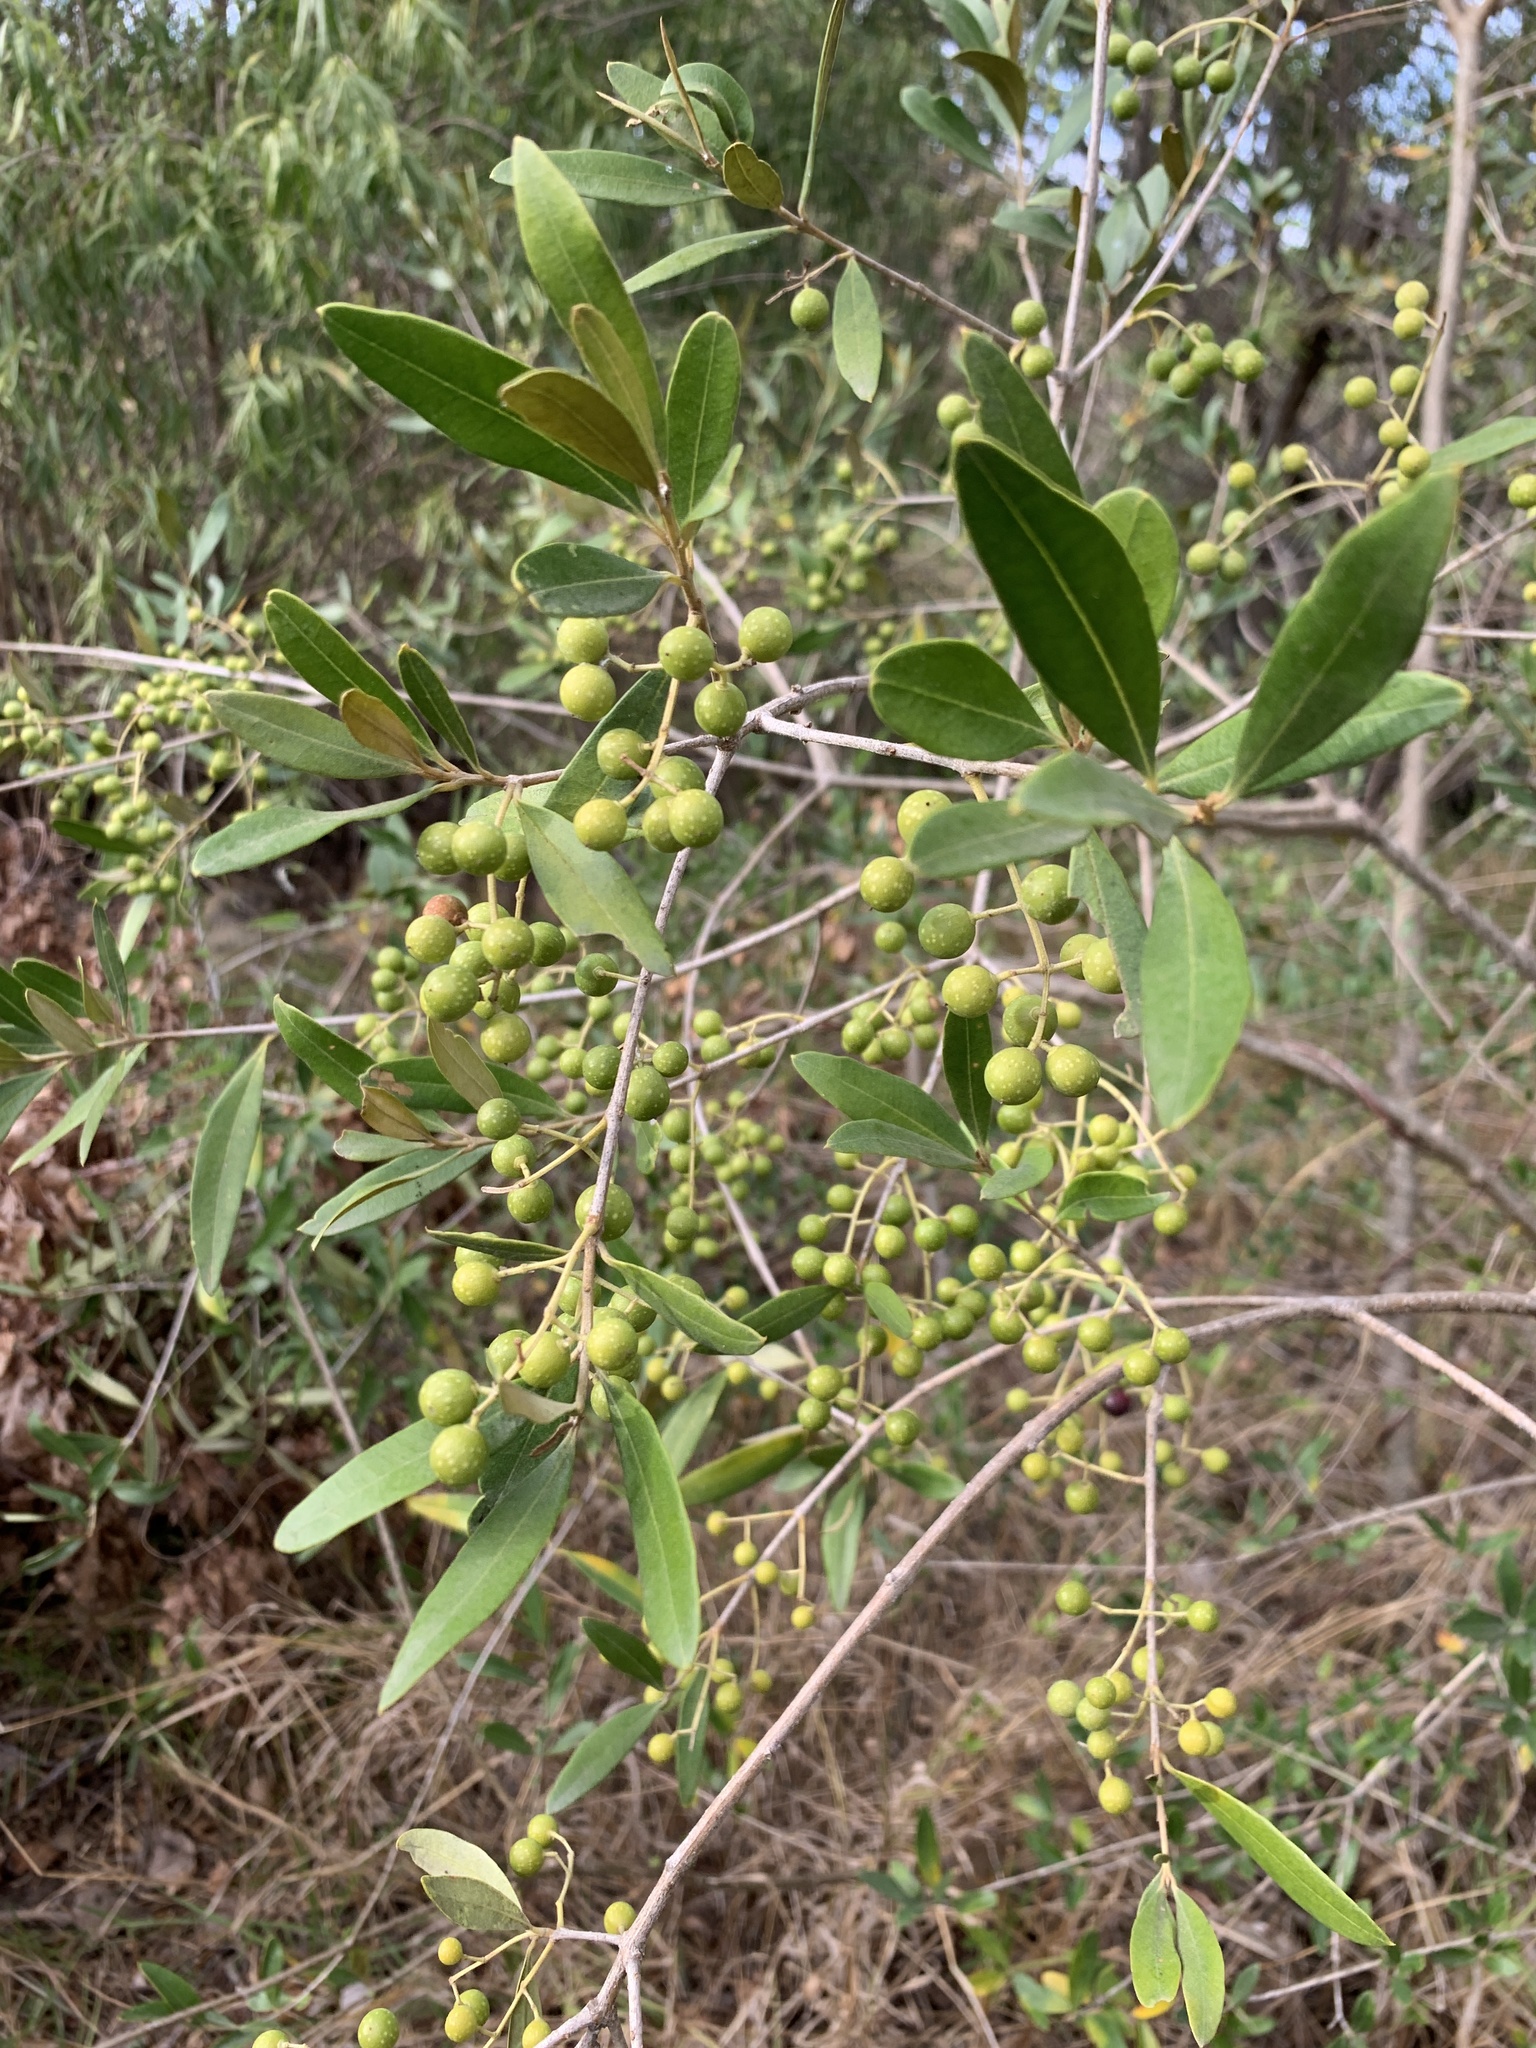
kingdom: Plantae
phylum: Tracheophyta
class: Magnoliopsida
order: Lamiales
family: Oleaceae
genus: Olea
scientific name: Olea europaea
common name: Olive
